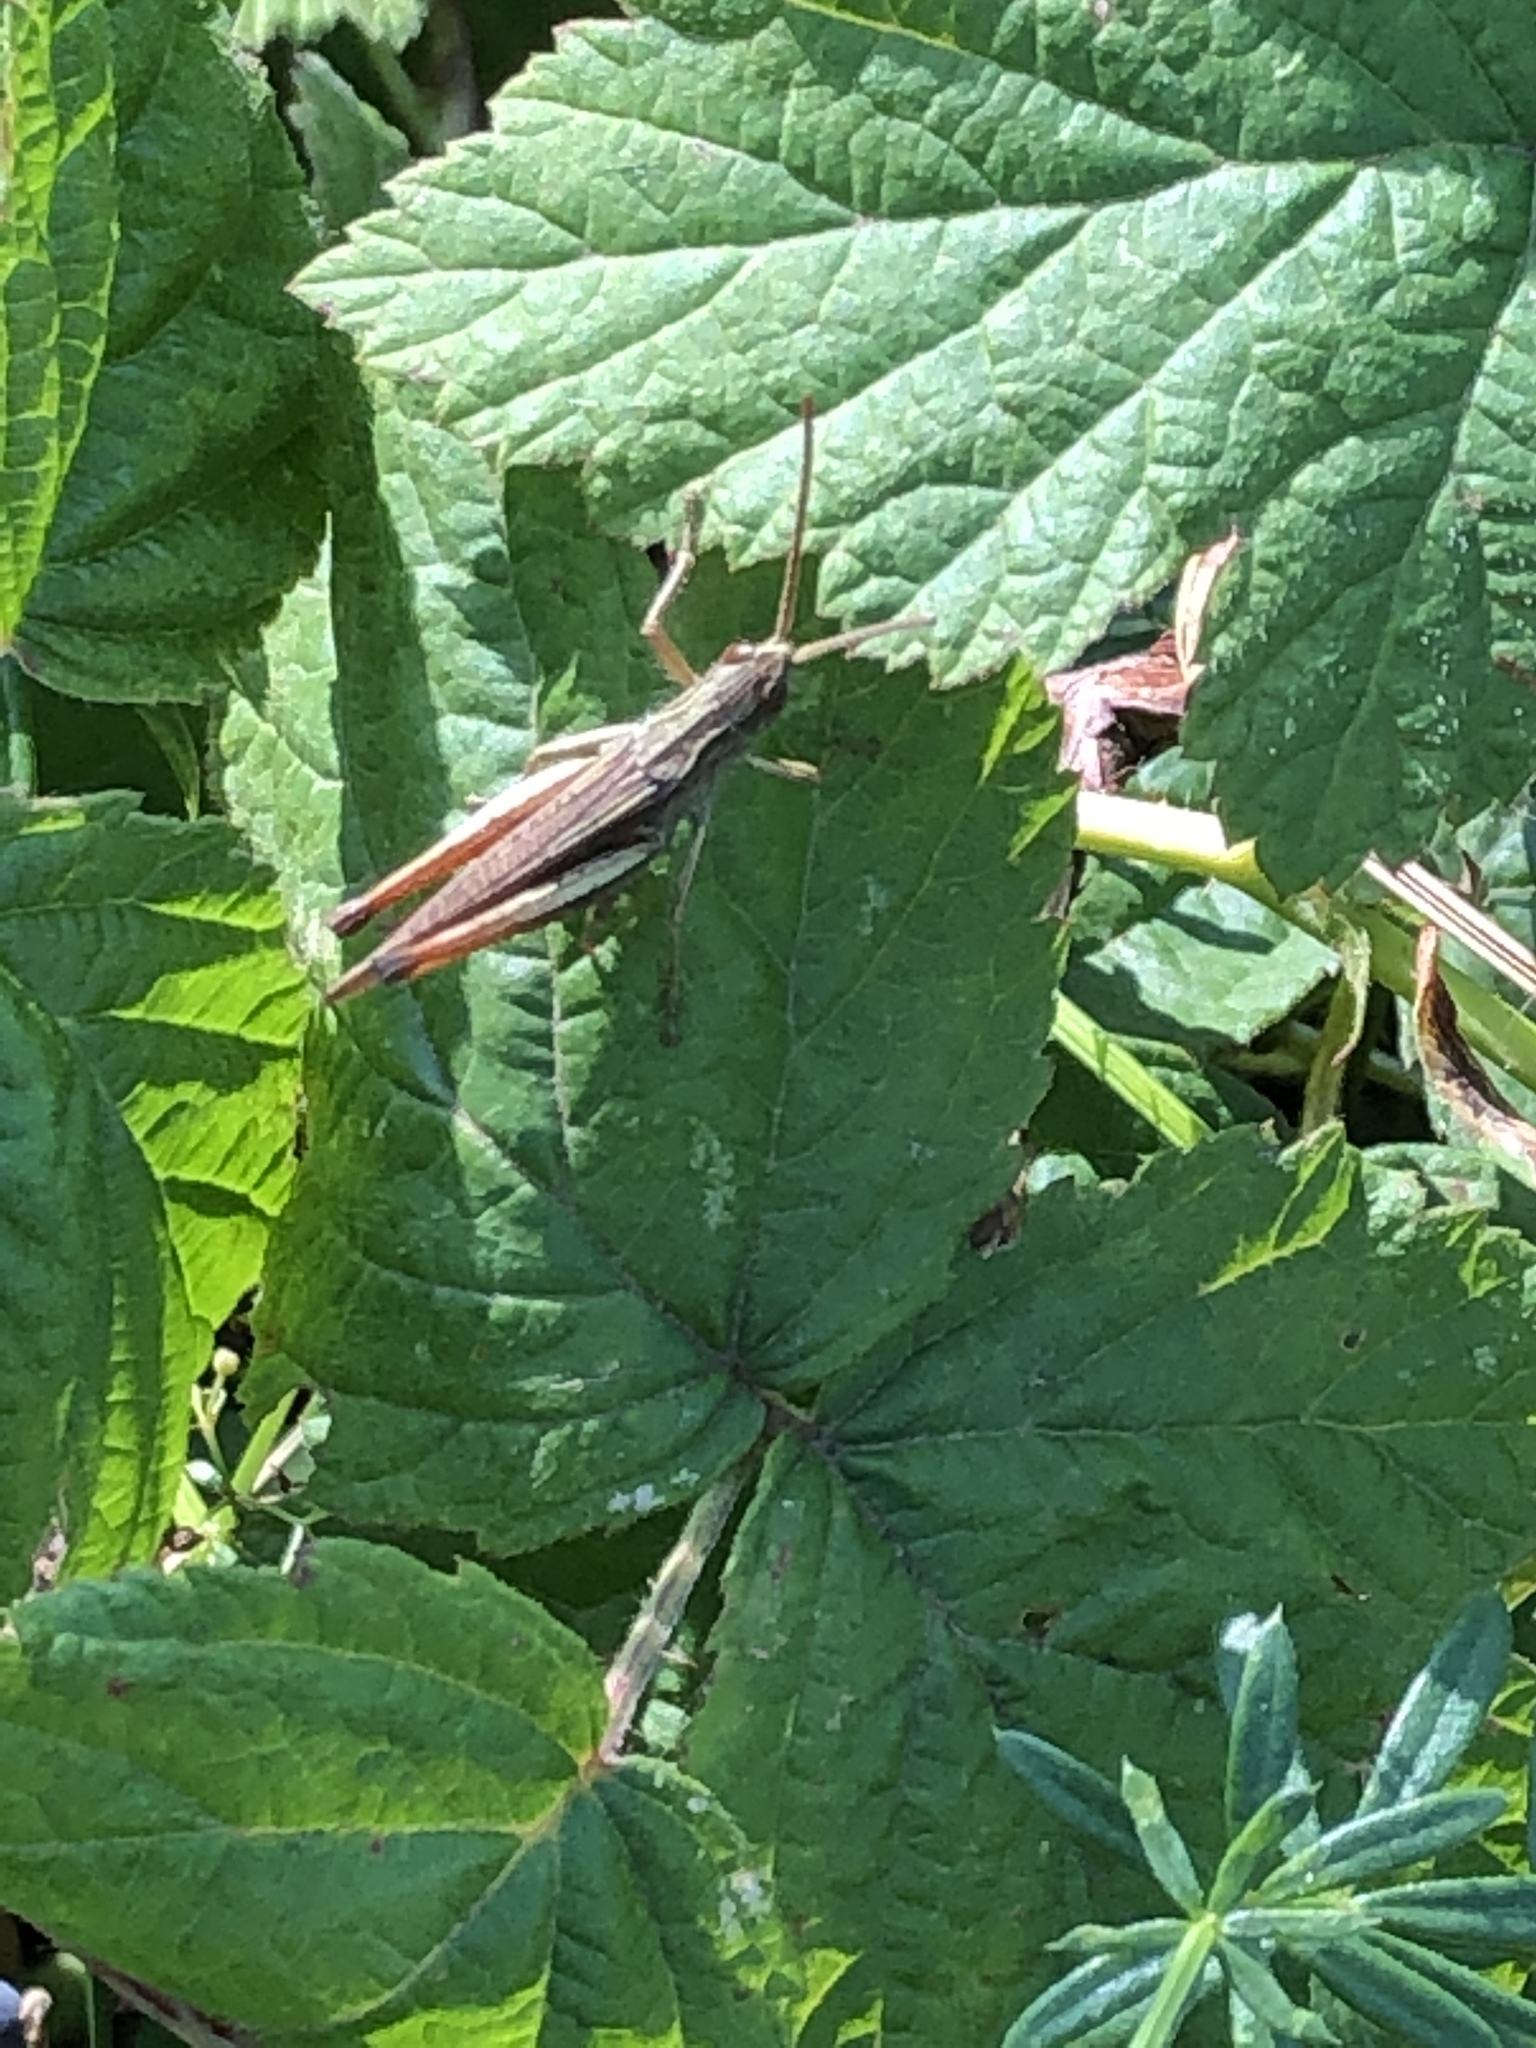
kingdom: Animalia
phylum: Arthropoda
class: Insecta
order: Orthoptera
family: Acrididae
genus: Chorthippus
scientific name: Chorthippus dorsatus
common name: Steppe grasshopper
